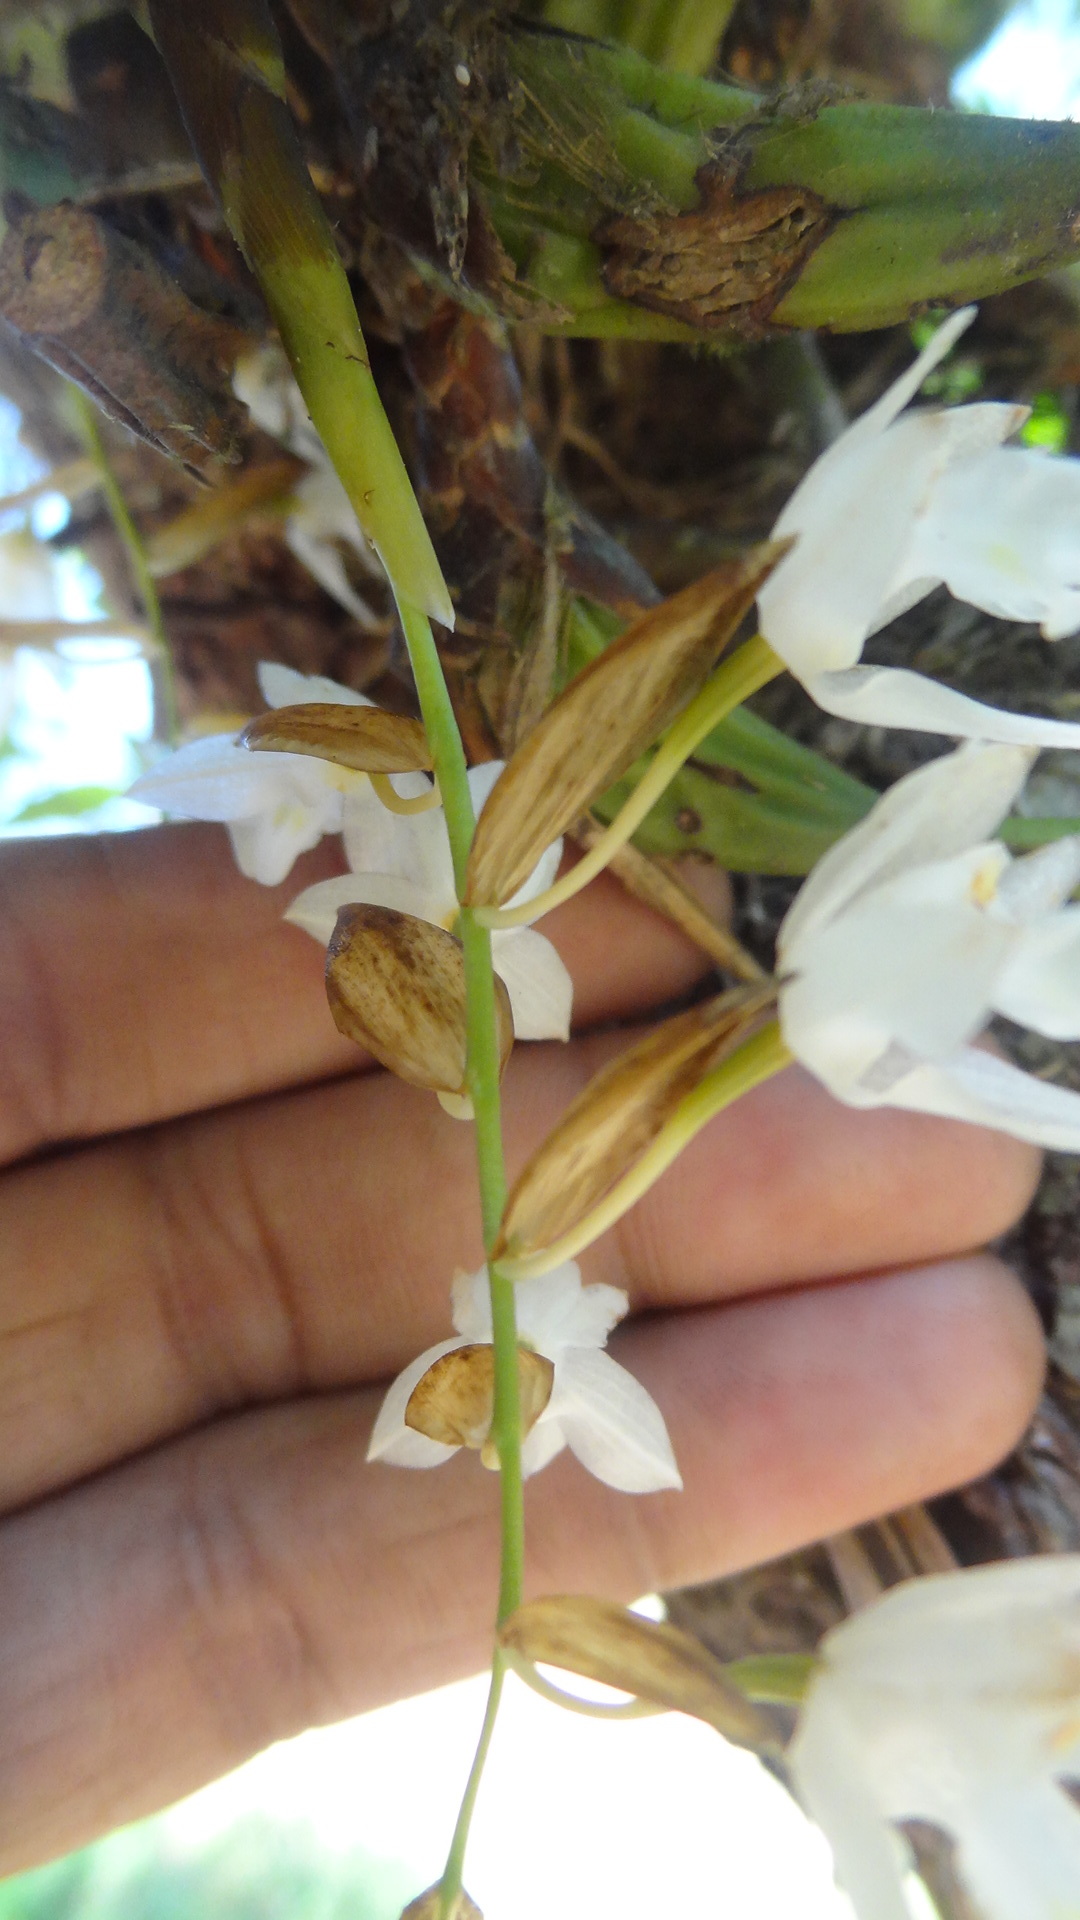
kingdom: Plantae
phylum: Tracheophyta
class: Liliopsida
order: Asparagales
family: Orchidaceae
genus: Coelogyne
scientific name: Coelogyne breviscapa
